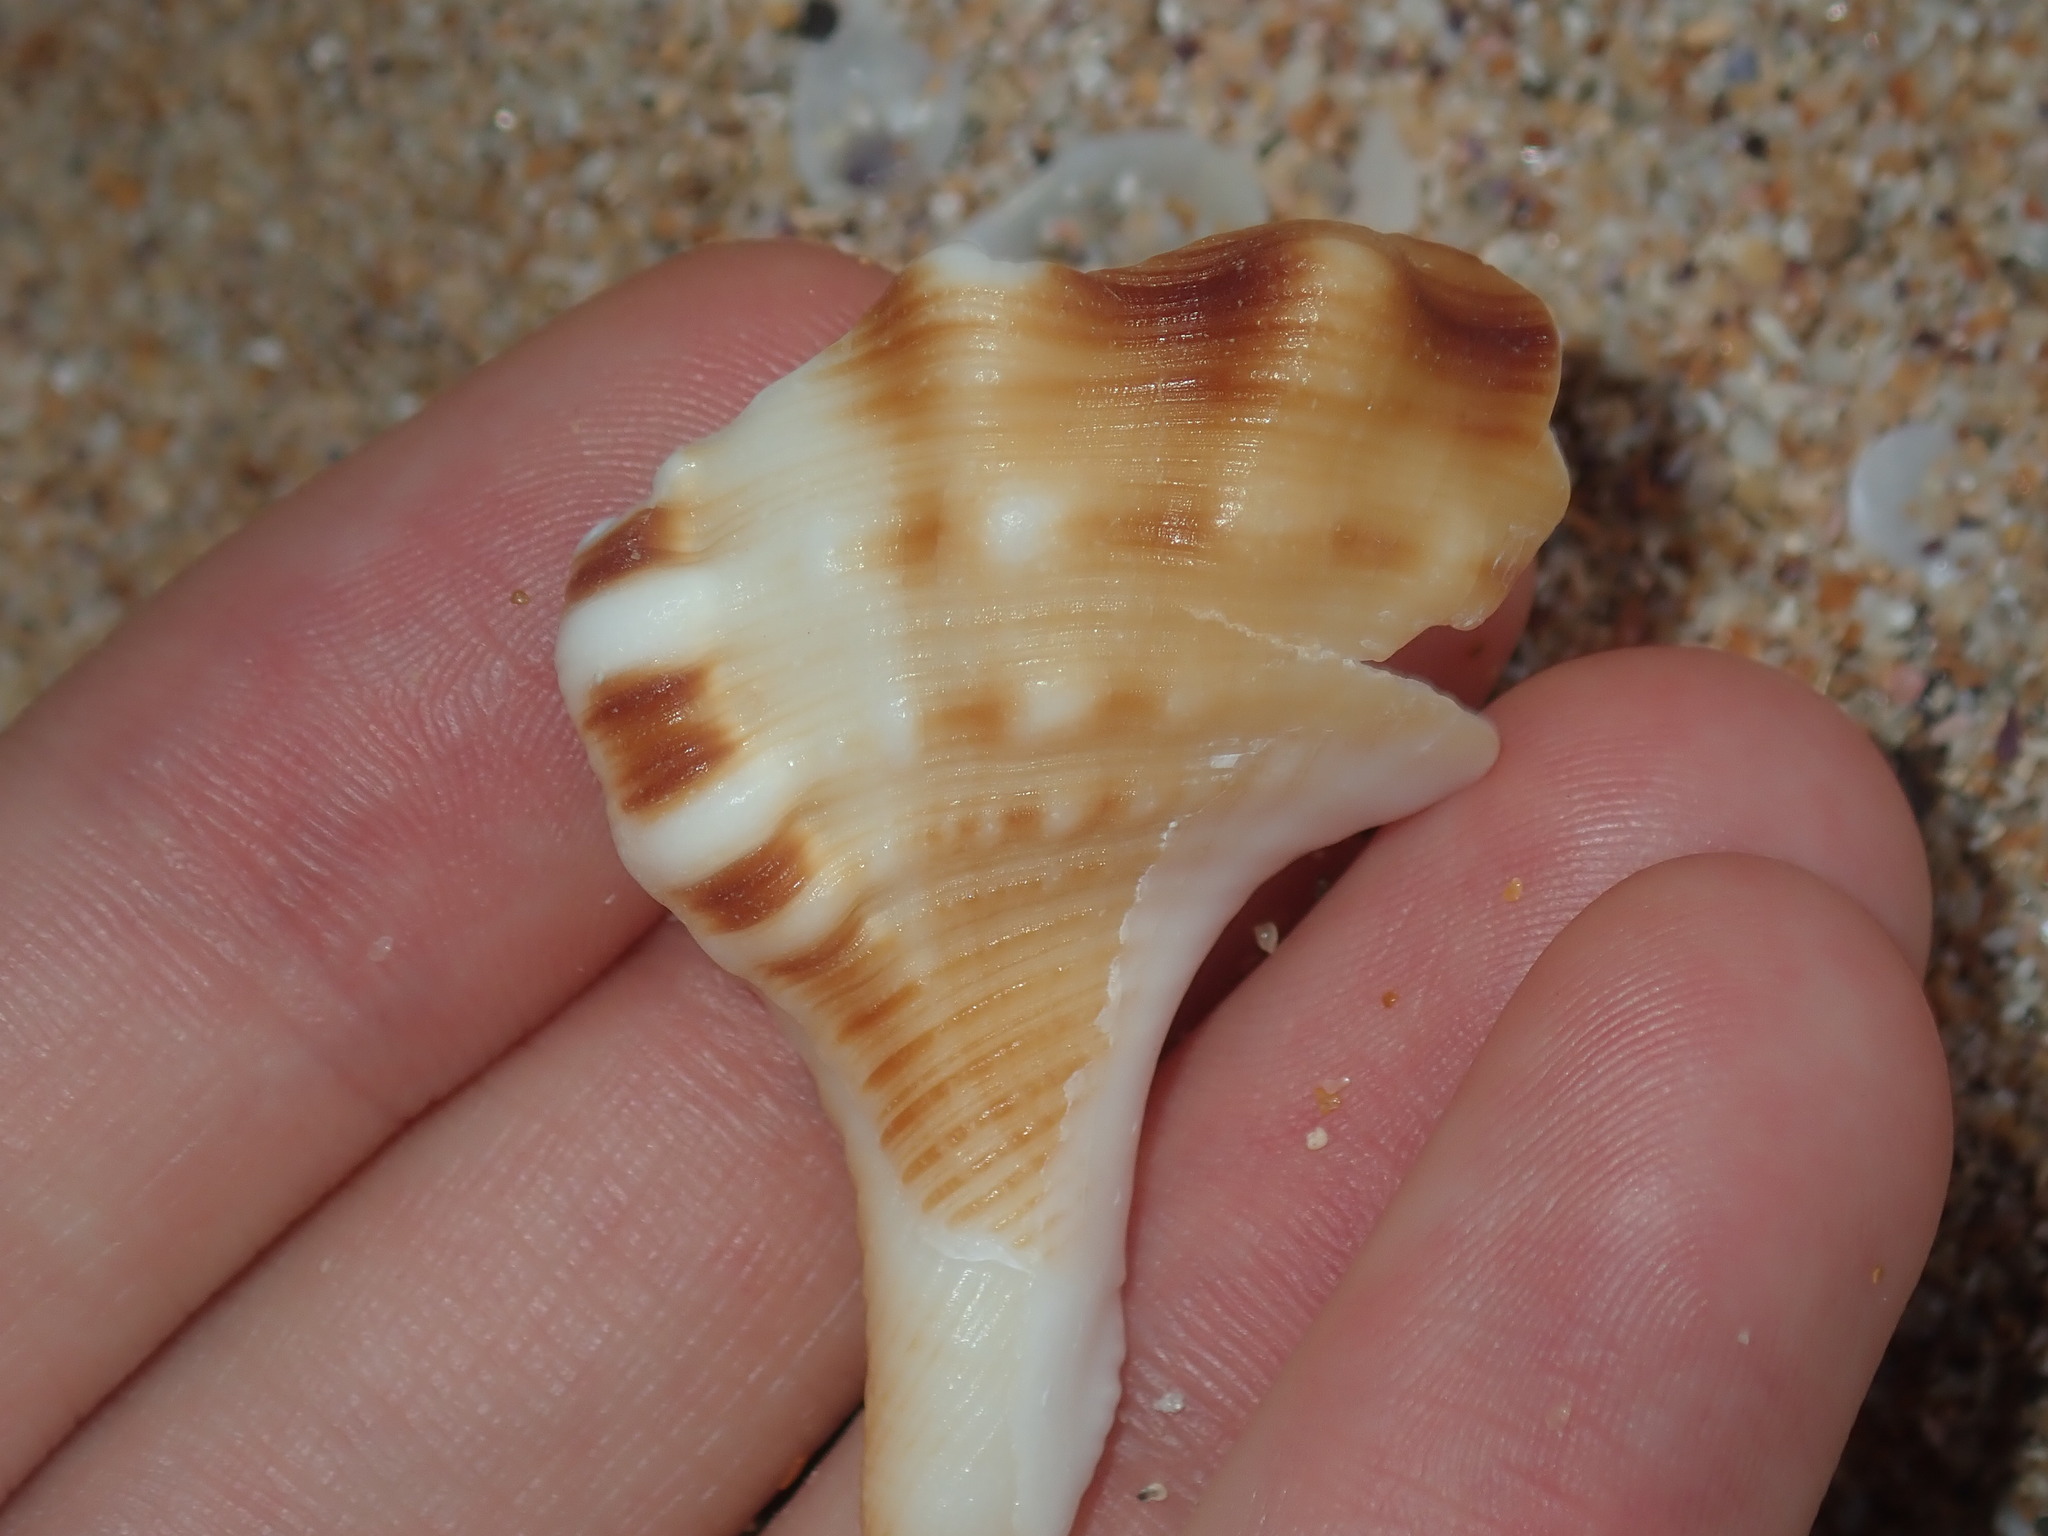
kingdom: Animalia
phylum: Mollusca
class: Gastropoda
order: Littorinimorpha
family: Ranellidae
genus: Ranella
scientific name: Ranella australasia
